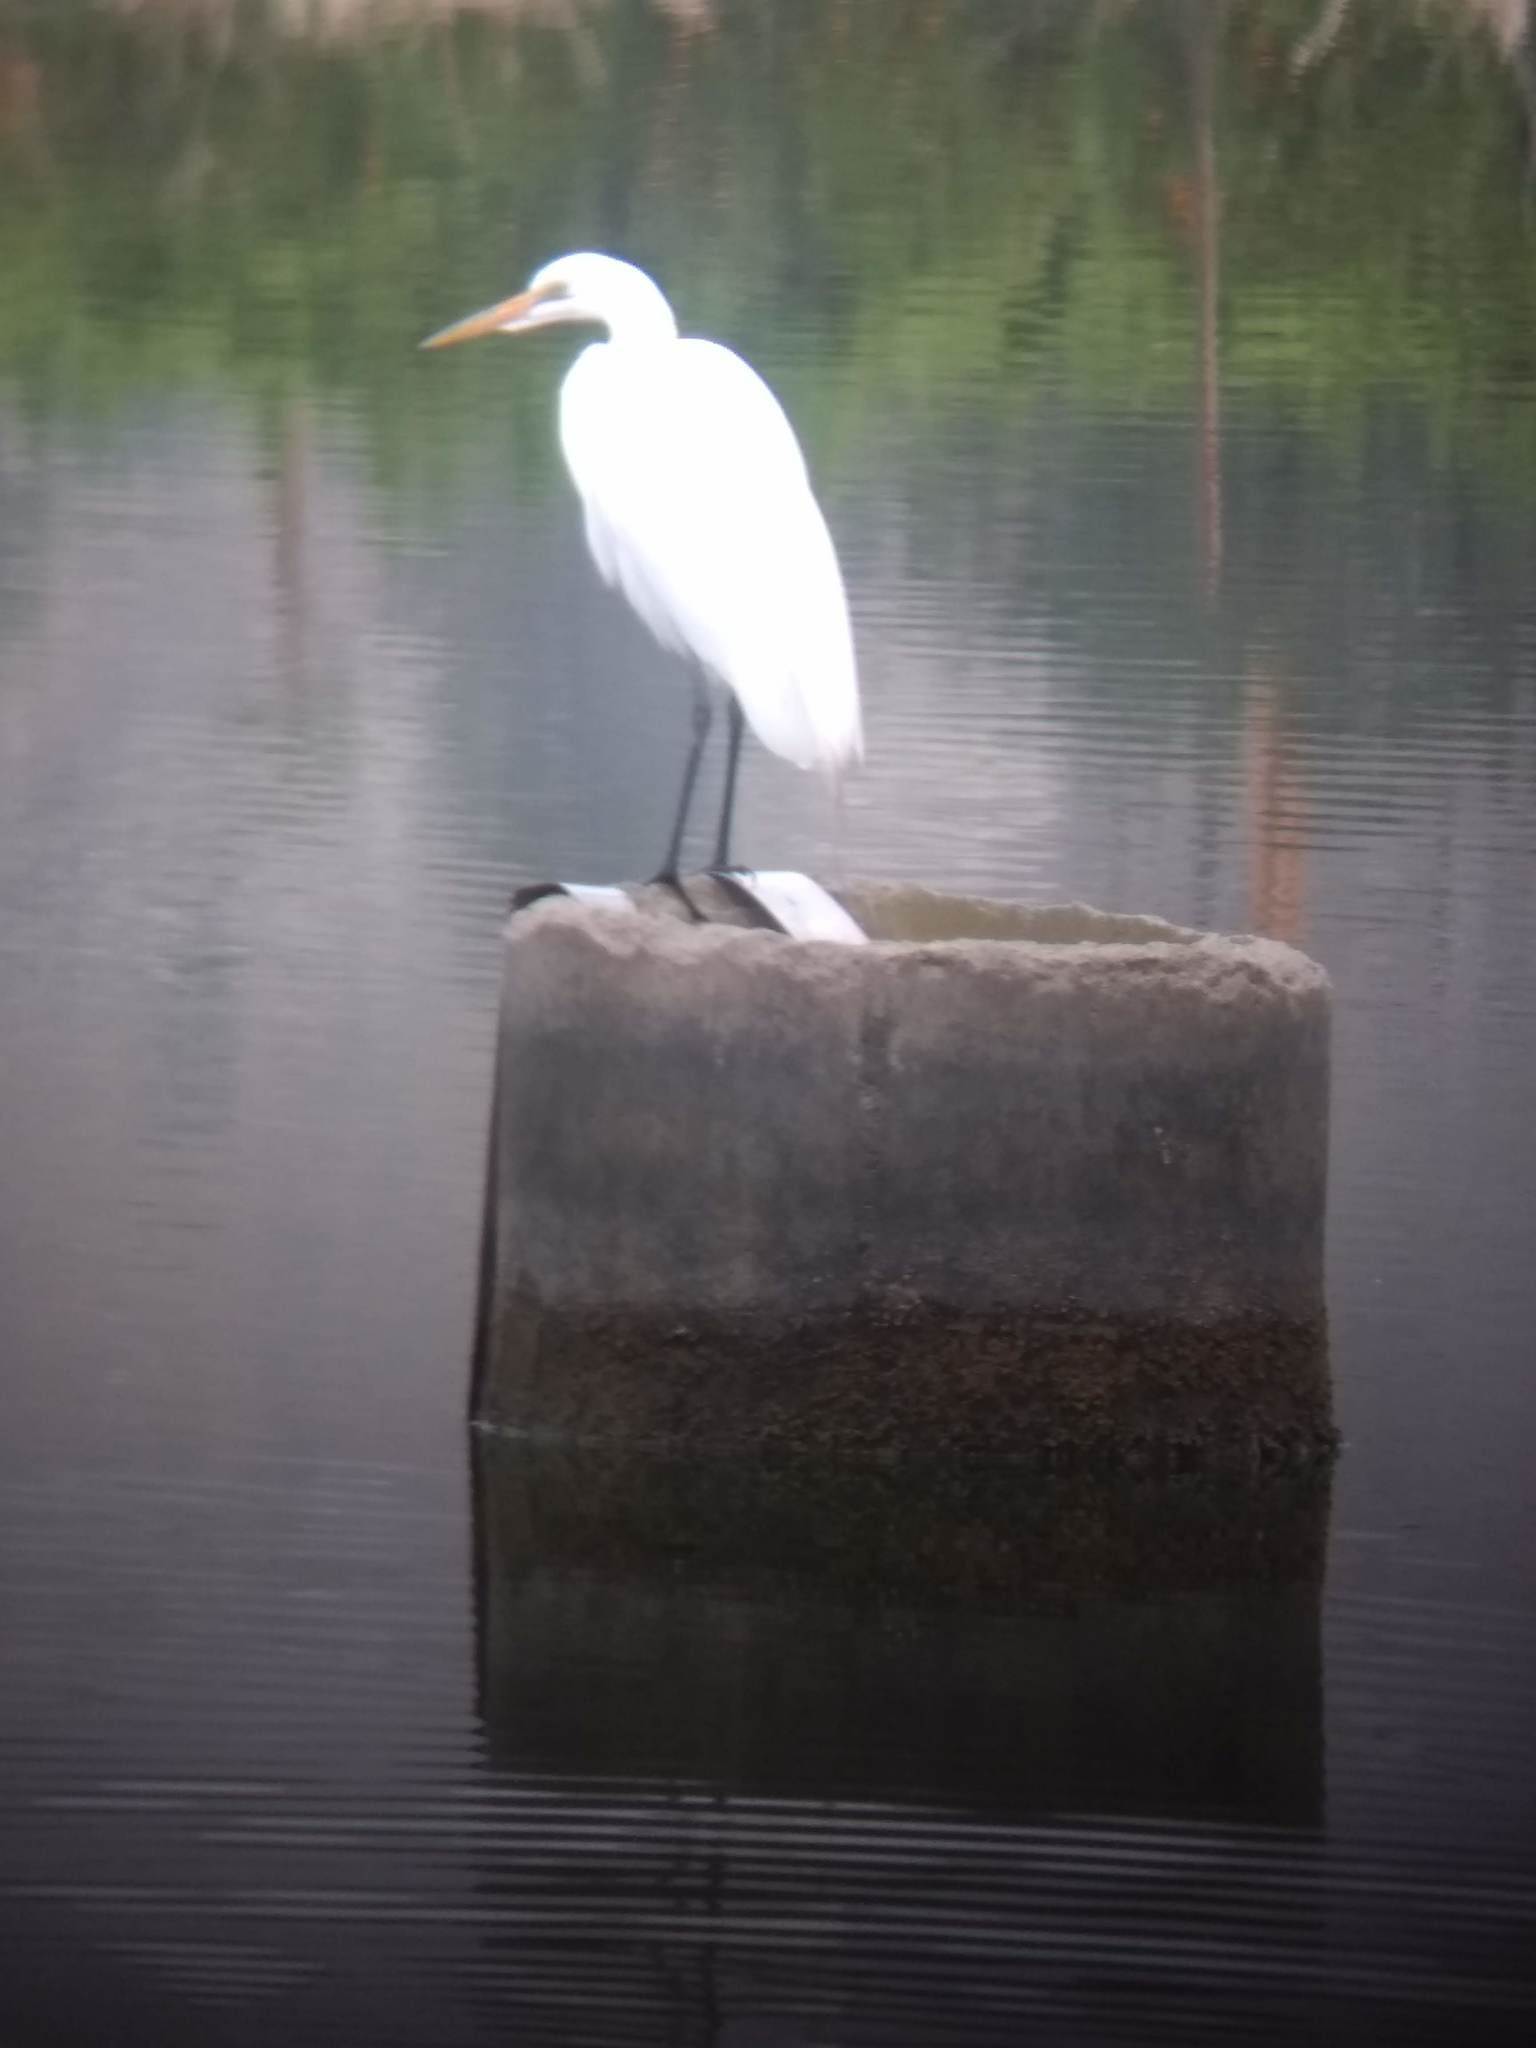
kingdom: Animalia
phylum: Chordata
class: Aves
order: Pelecaniformes
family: Ardeidae
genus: Ardea
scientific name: Ardea alba
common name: Great egret
